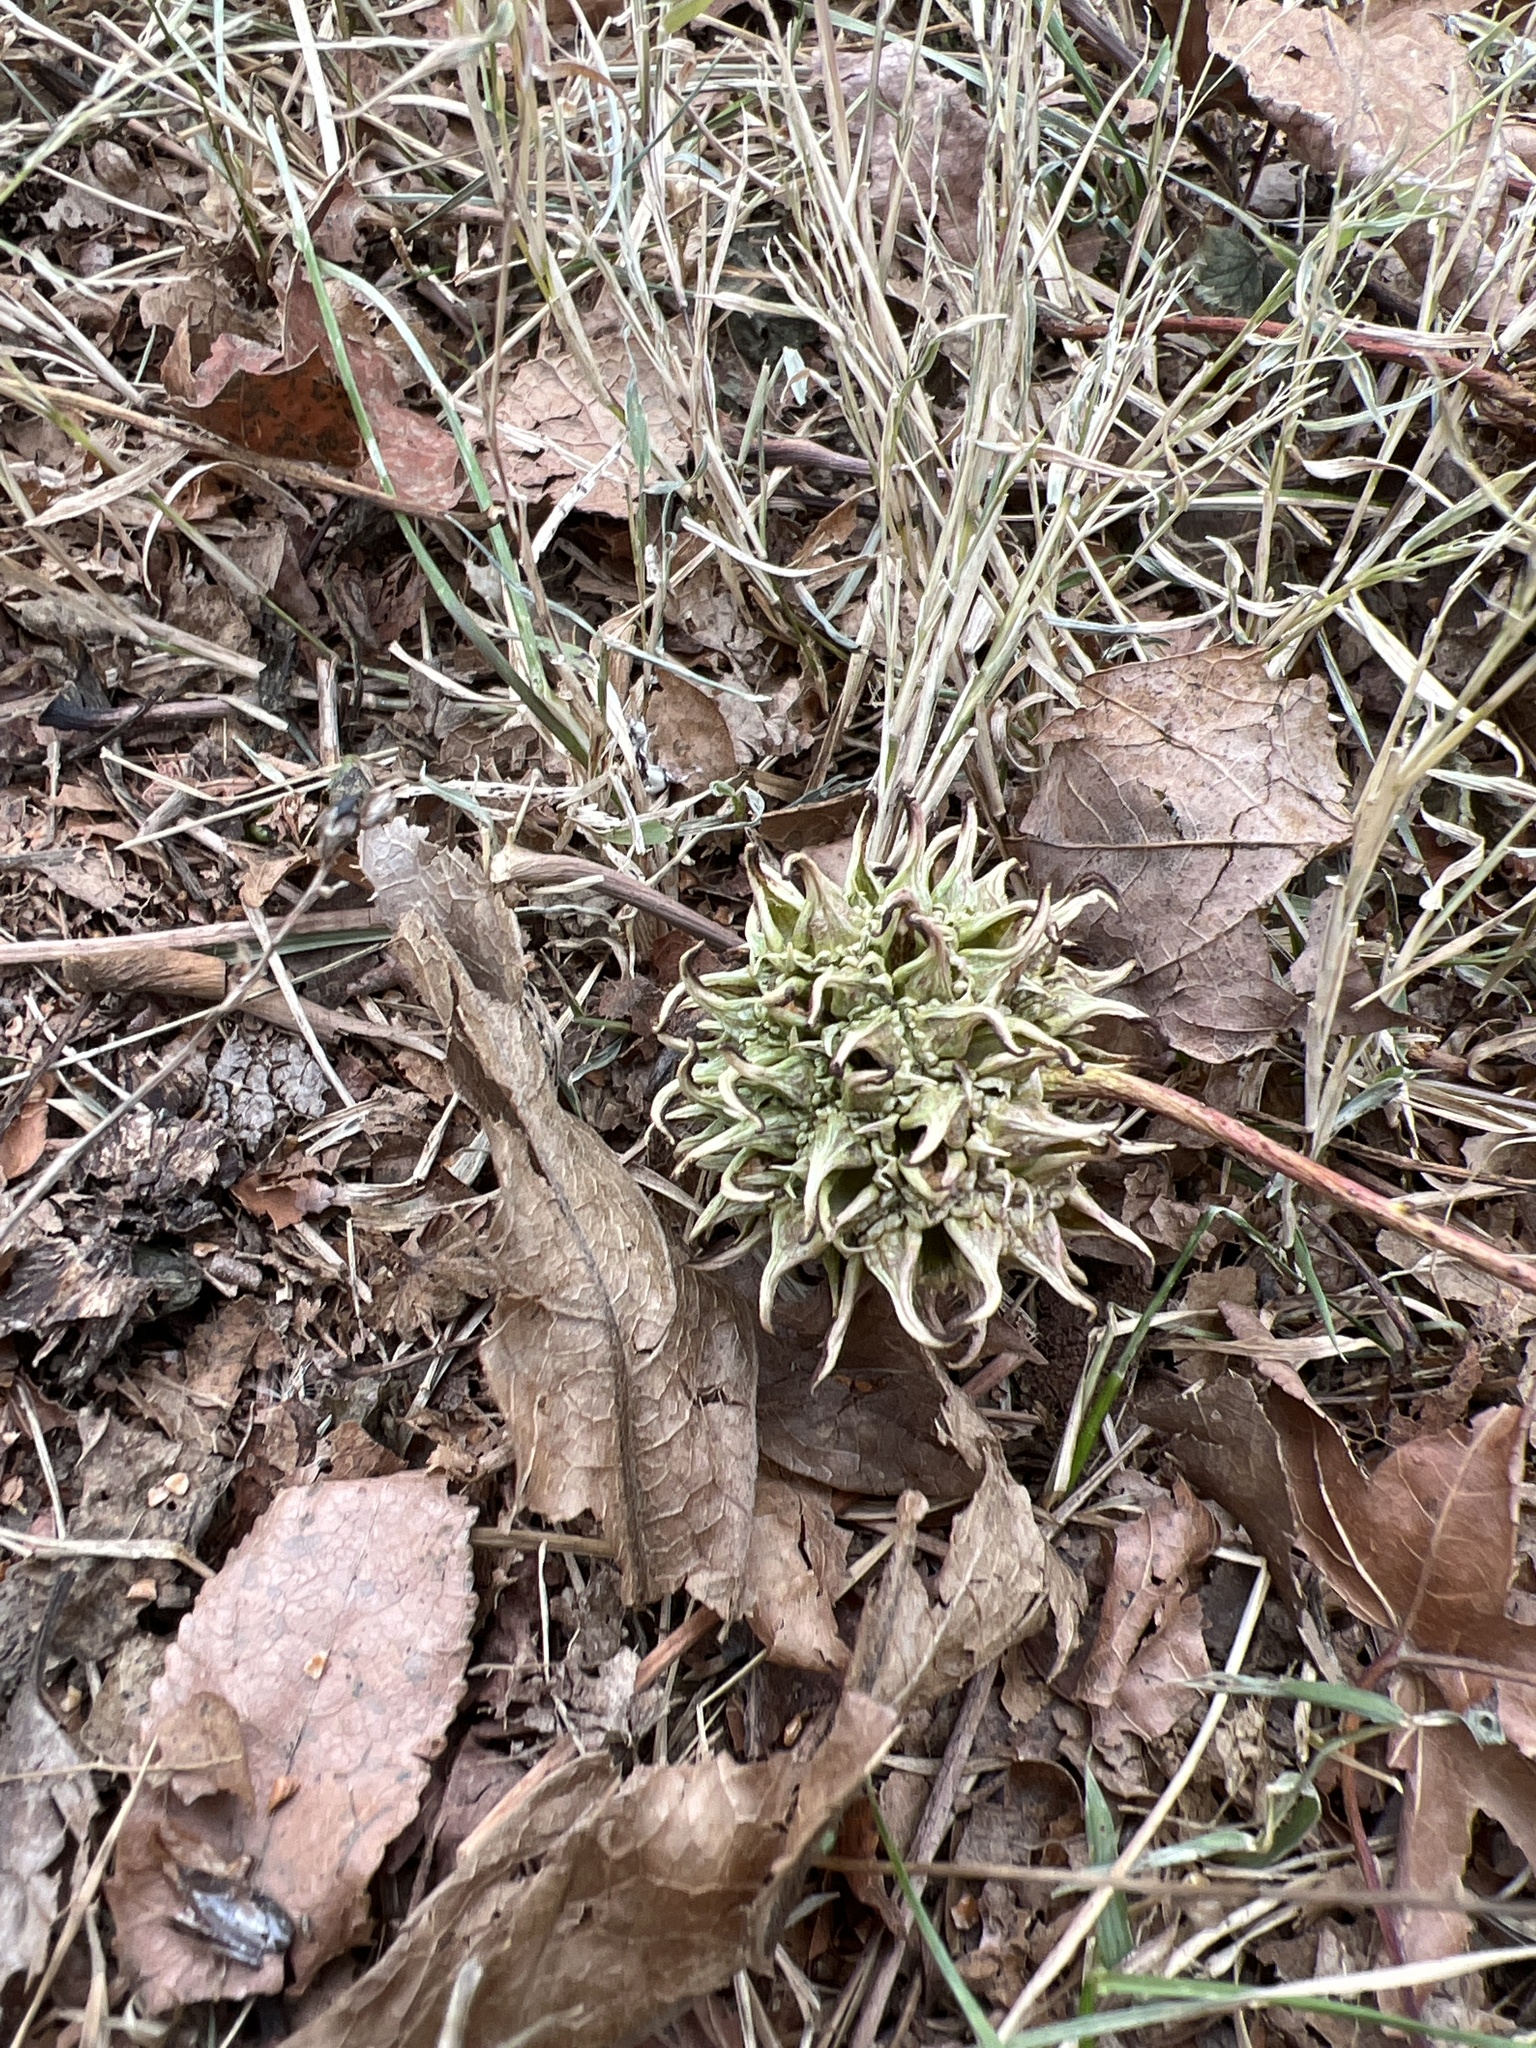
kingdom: Plantae
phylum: Tracheophyta
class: Magnoliopsida
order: Saxifragales
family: Altingiaceae
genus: Liquidambar
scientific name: Liquidambar styraciflua
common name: Sweet gum
